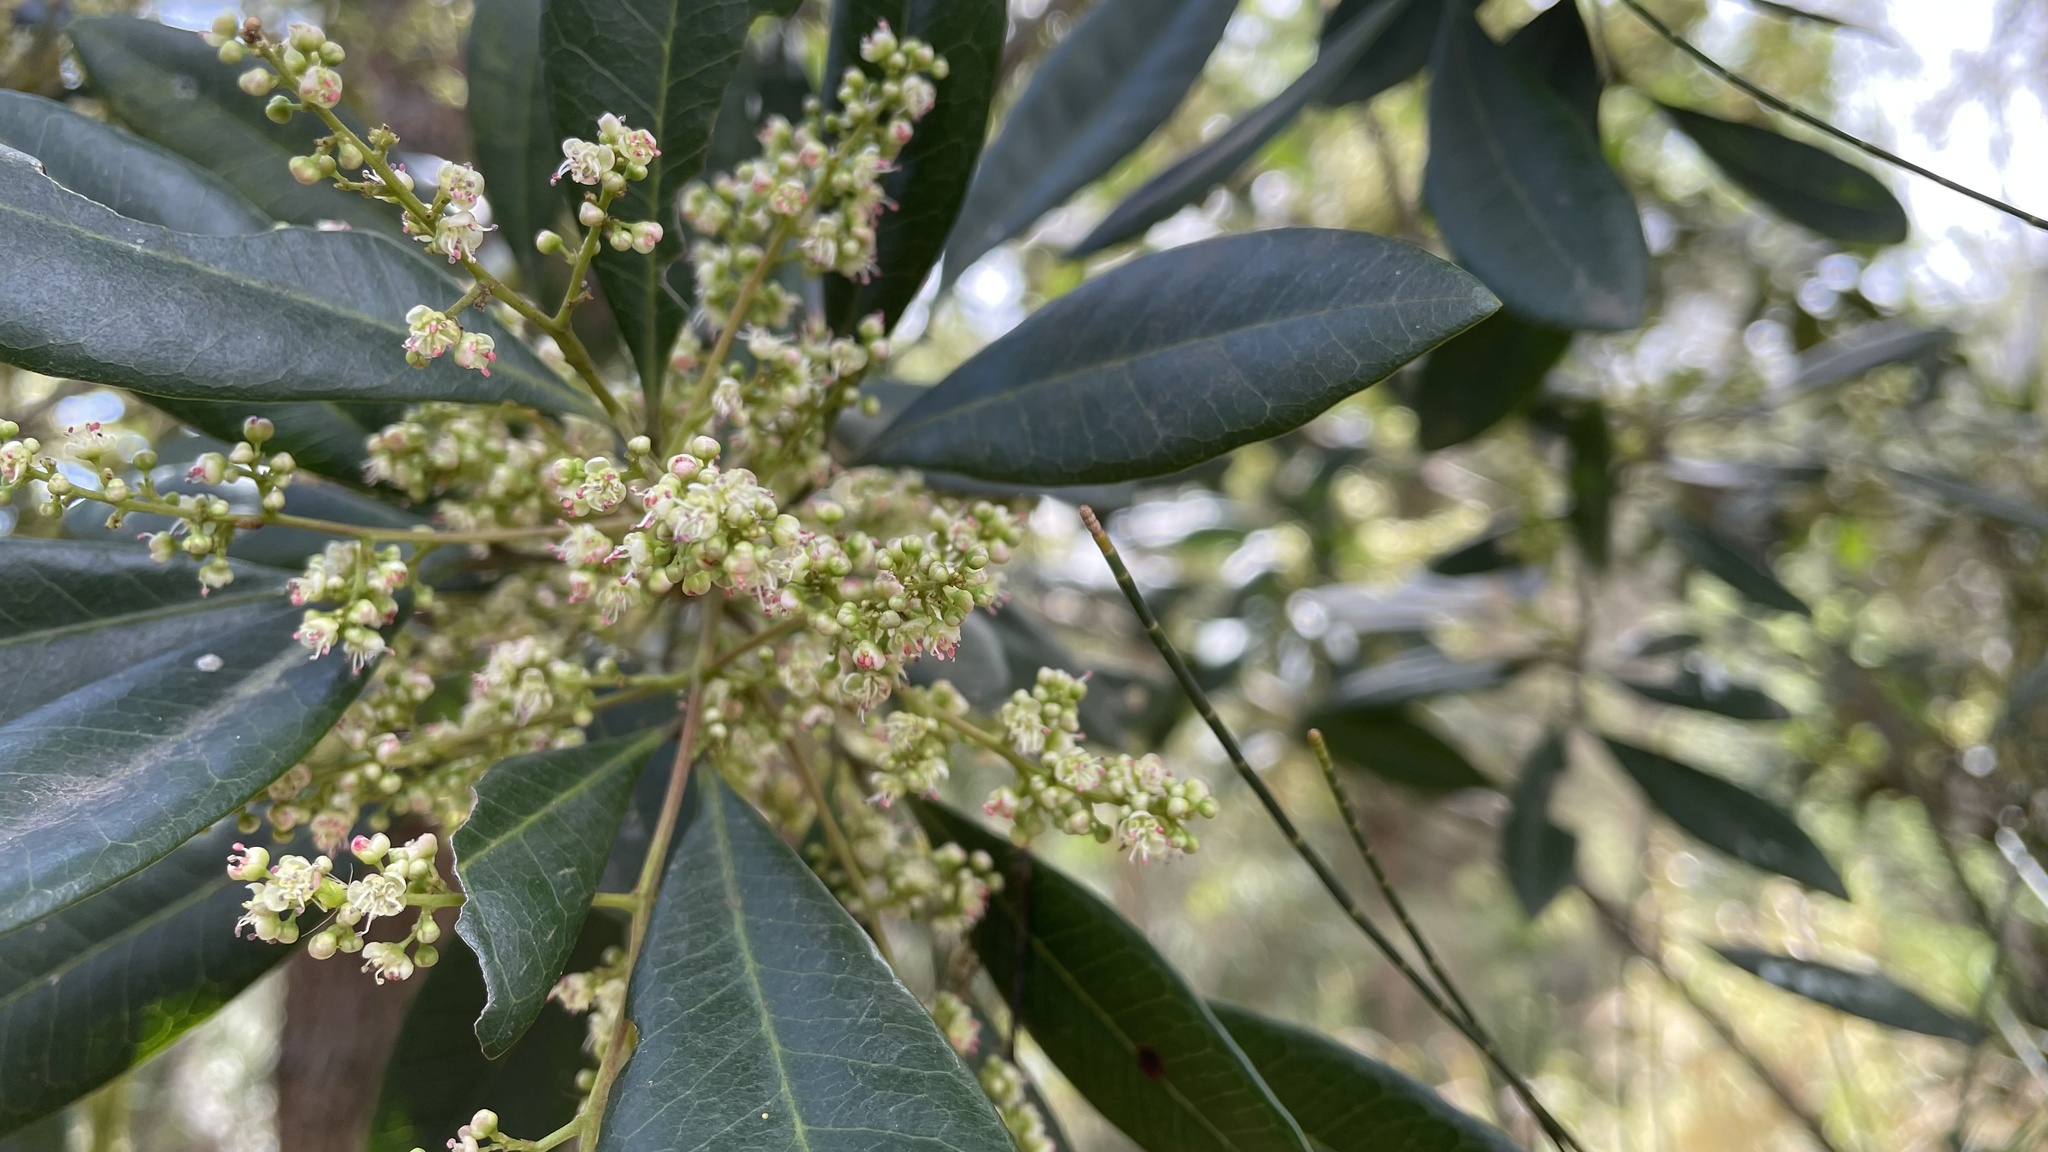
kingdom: Plantae
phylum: Tracheophyta
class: Magnoliopsida
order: Sapindales
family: Sapindaceae
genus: Guioa
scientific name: Guioa semiglauca
